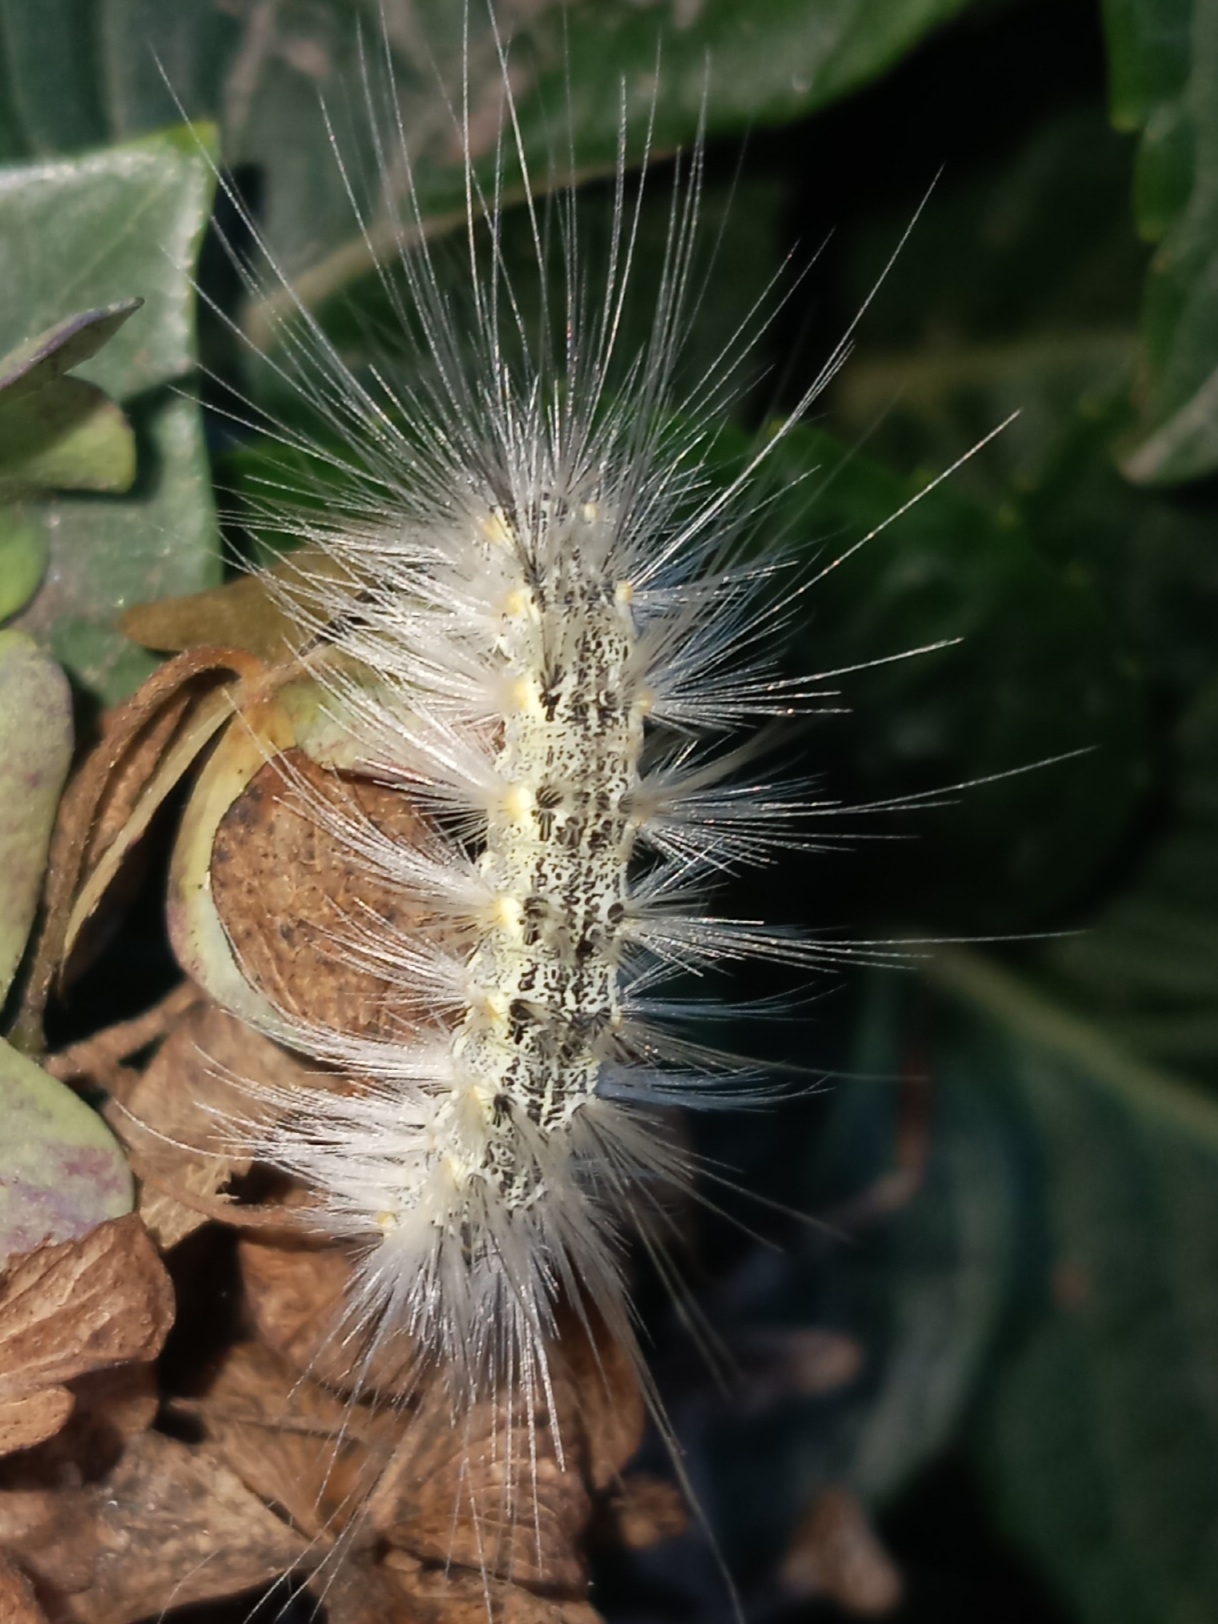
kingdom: Animalia
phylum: Arthropoda
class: Insecta
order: Lepidoptera
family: Erebidae
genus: Hyphantria
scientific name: Hyphantria cunea
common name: American white moth
